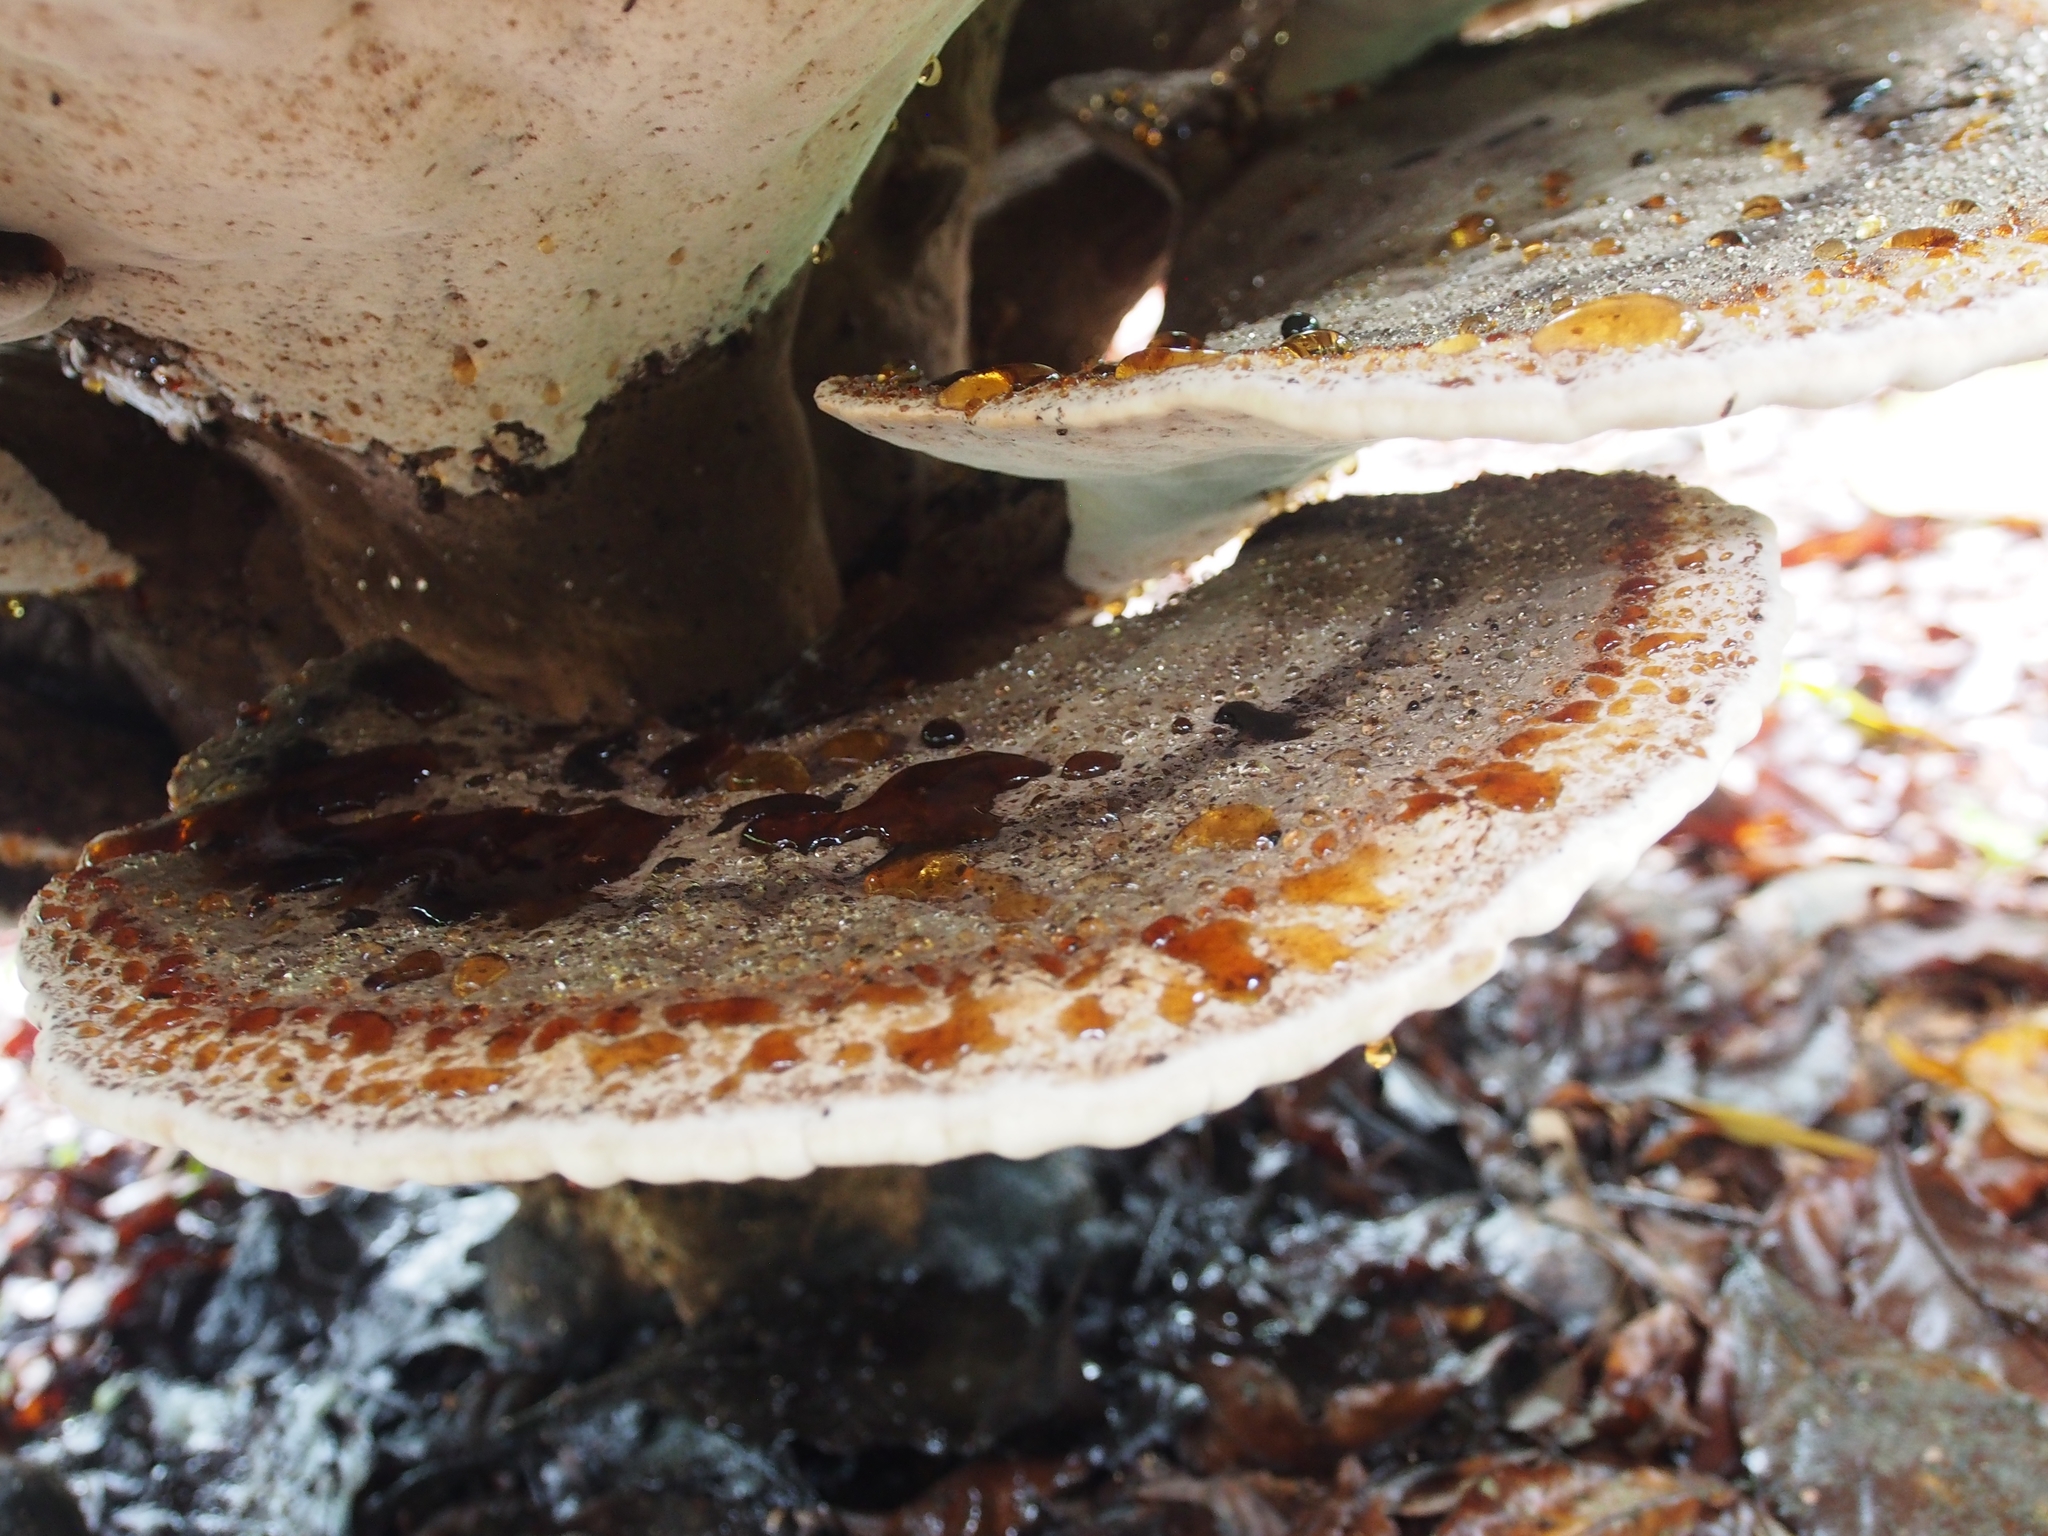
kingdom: Fungi
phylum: Basidiomycota
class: Agaricomycetes
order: Polyporales
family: Laetiporaceae
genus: Kusaghiporia
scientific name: Kusaghiporia talpae
